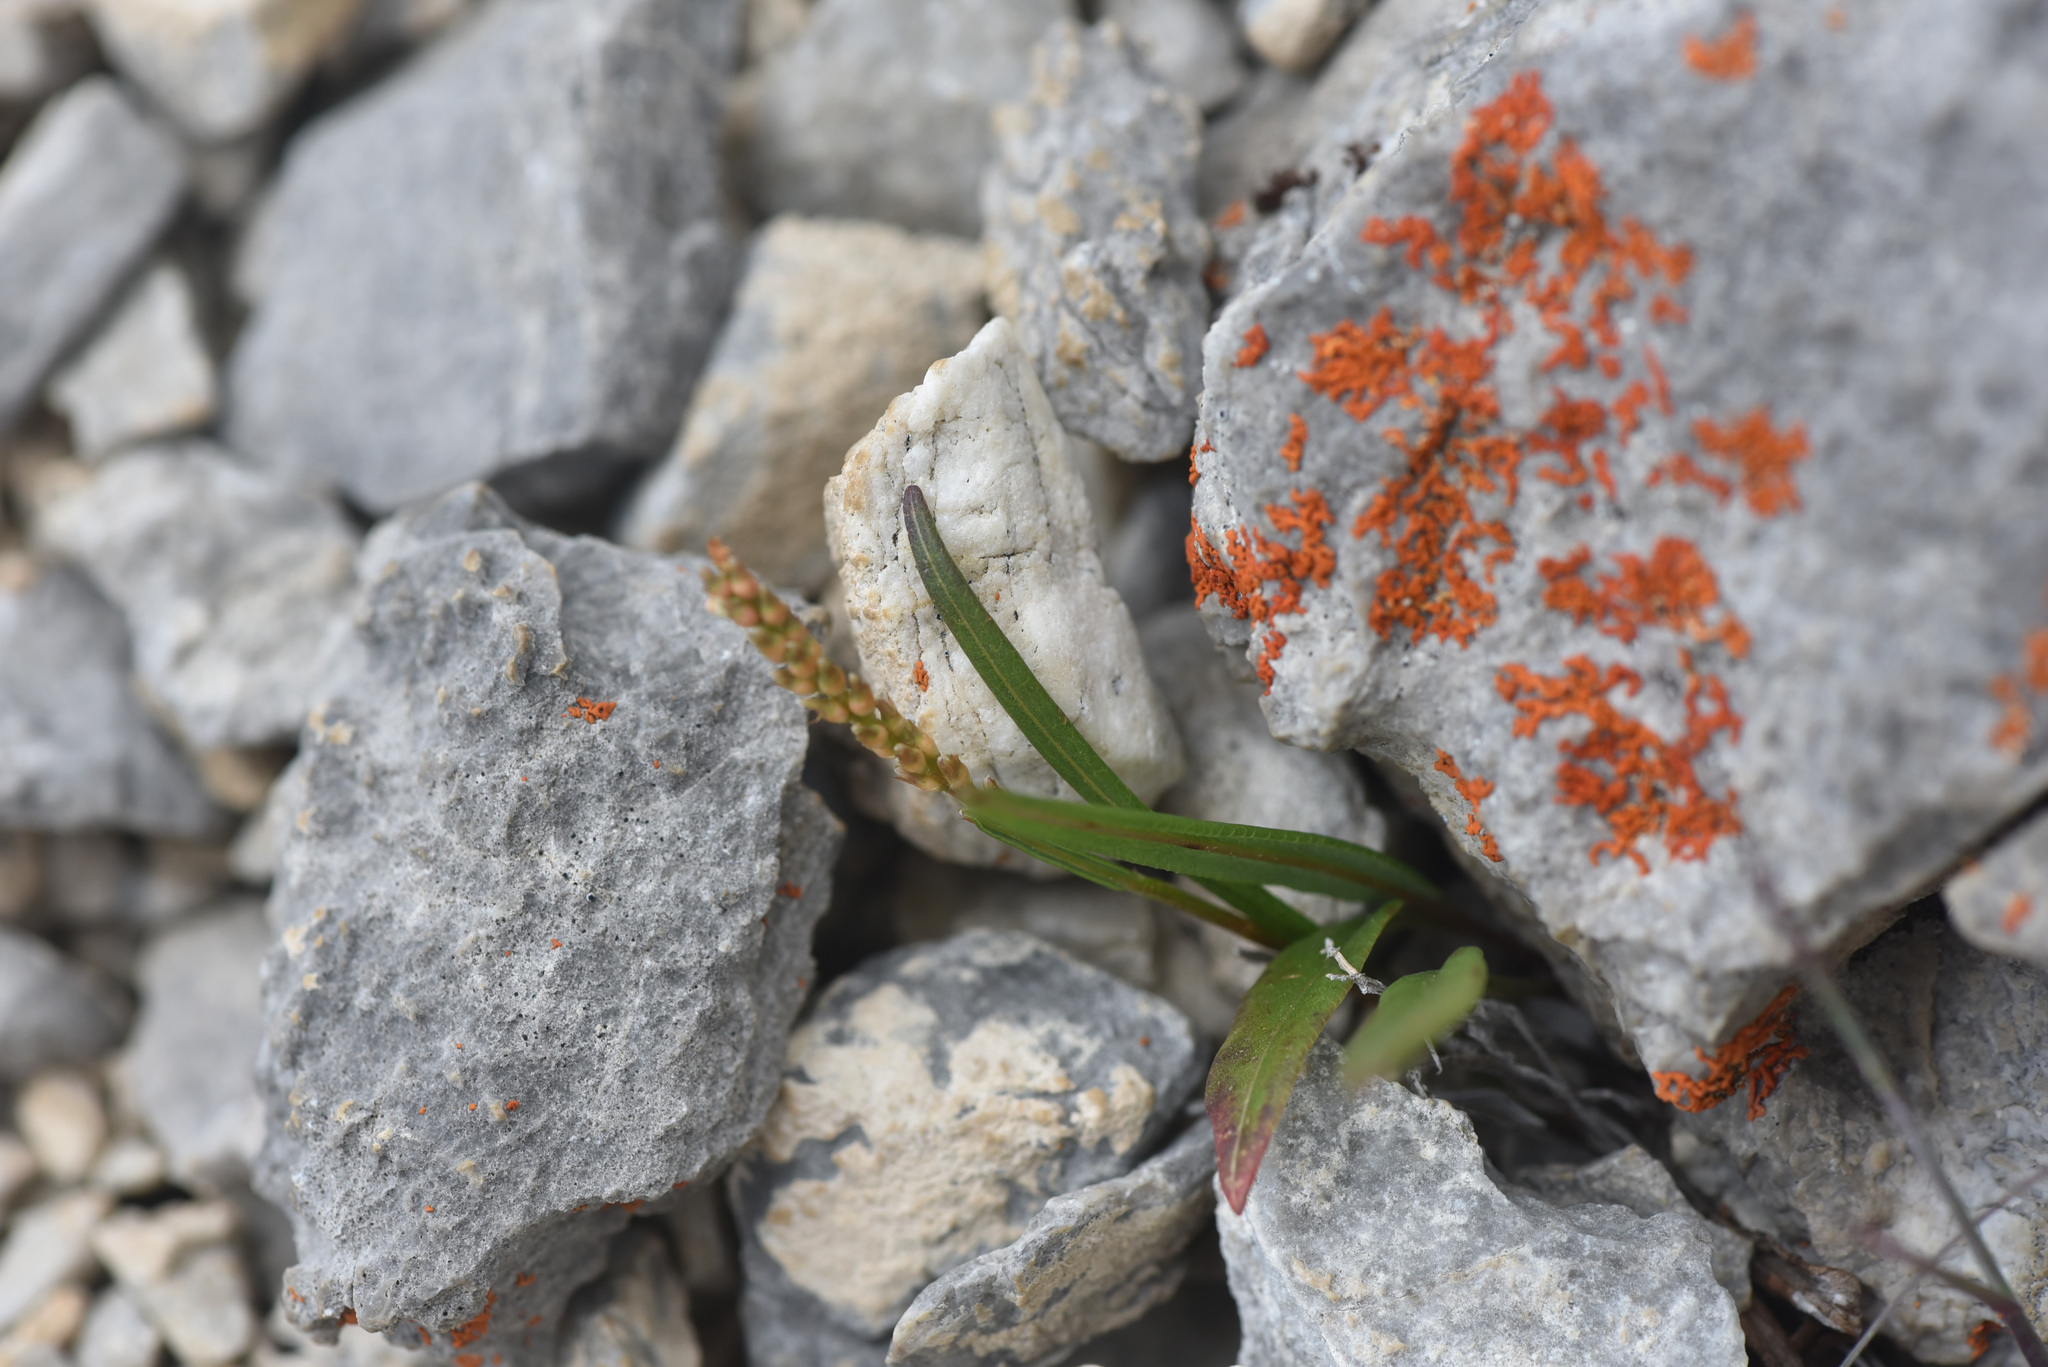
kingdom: Plantae
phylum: Tracheophyta
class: Magnoliopsida
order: Caryophyllales
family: Polygonaceae
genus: Bistorta
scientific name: Bistorta vivipara
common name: Alpine bistort
